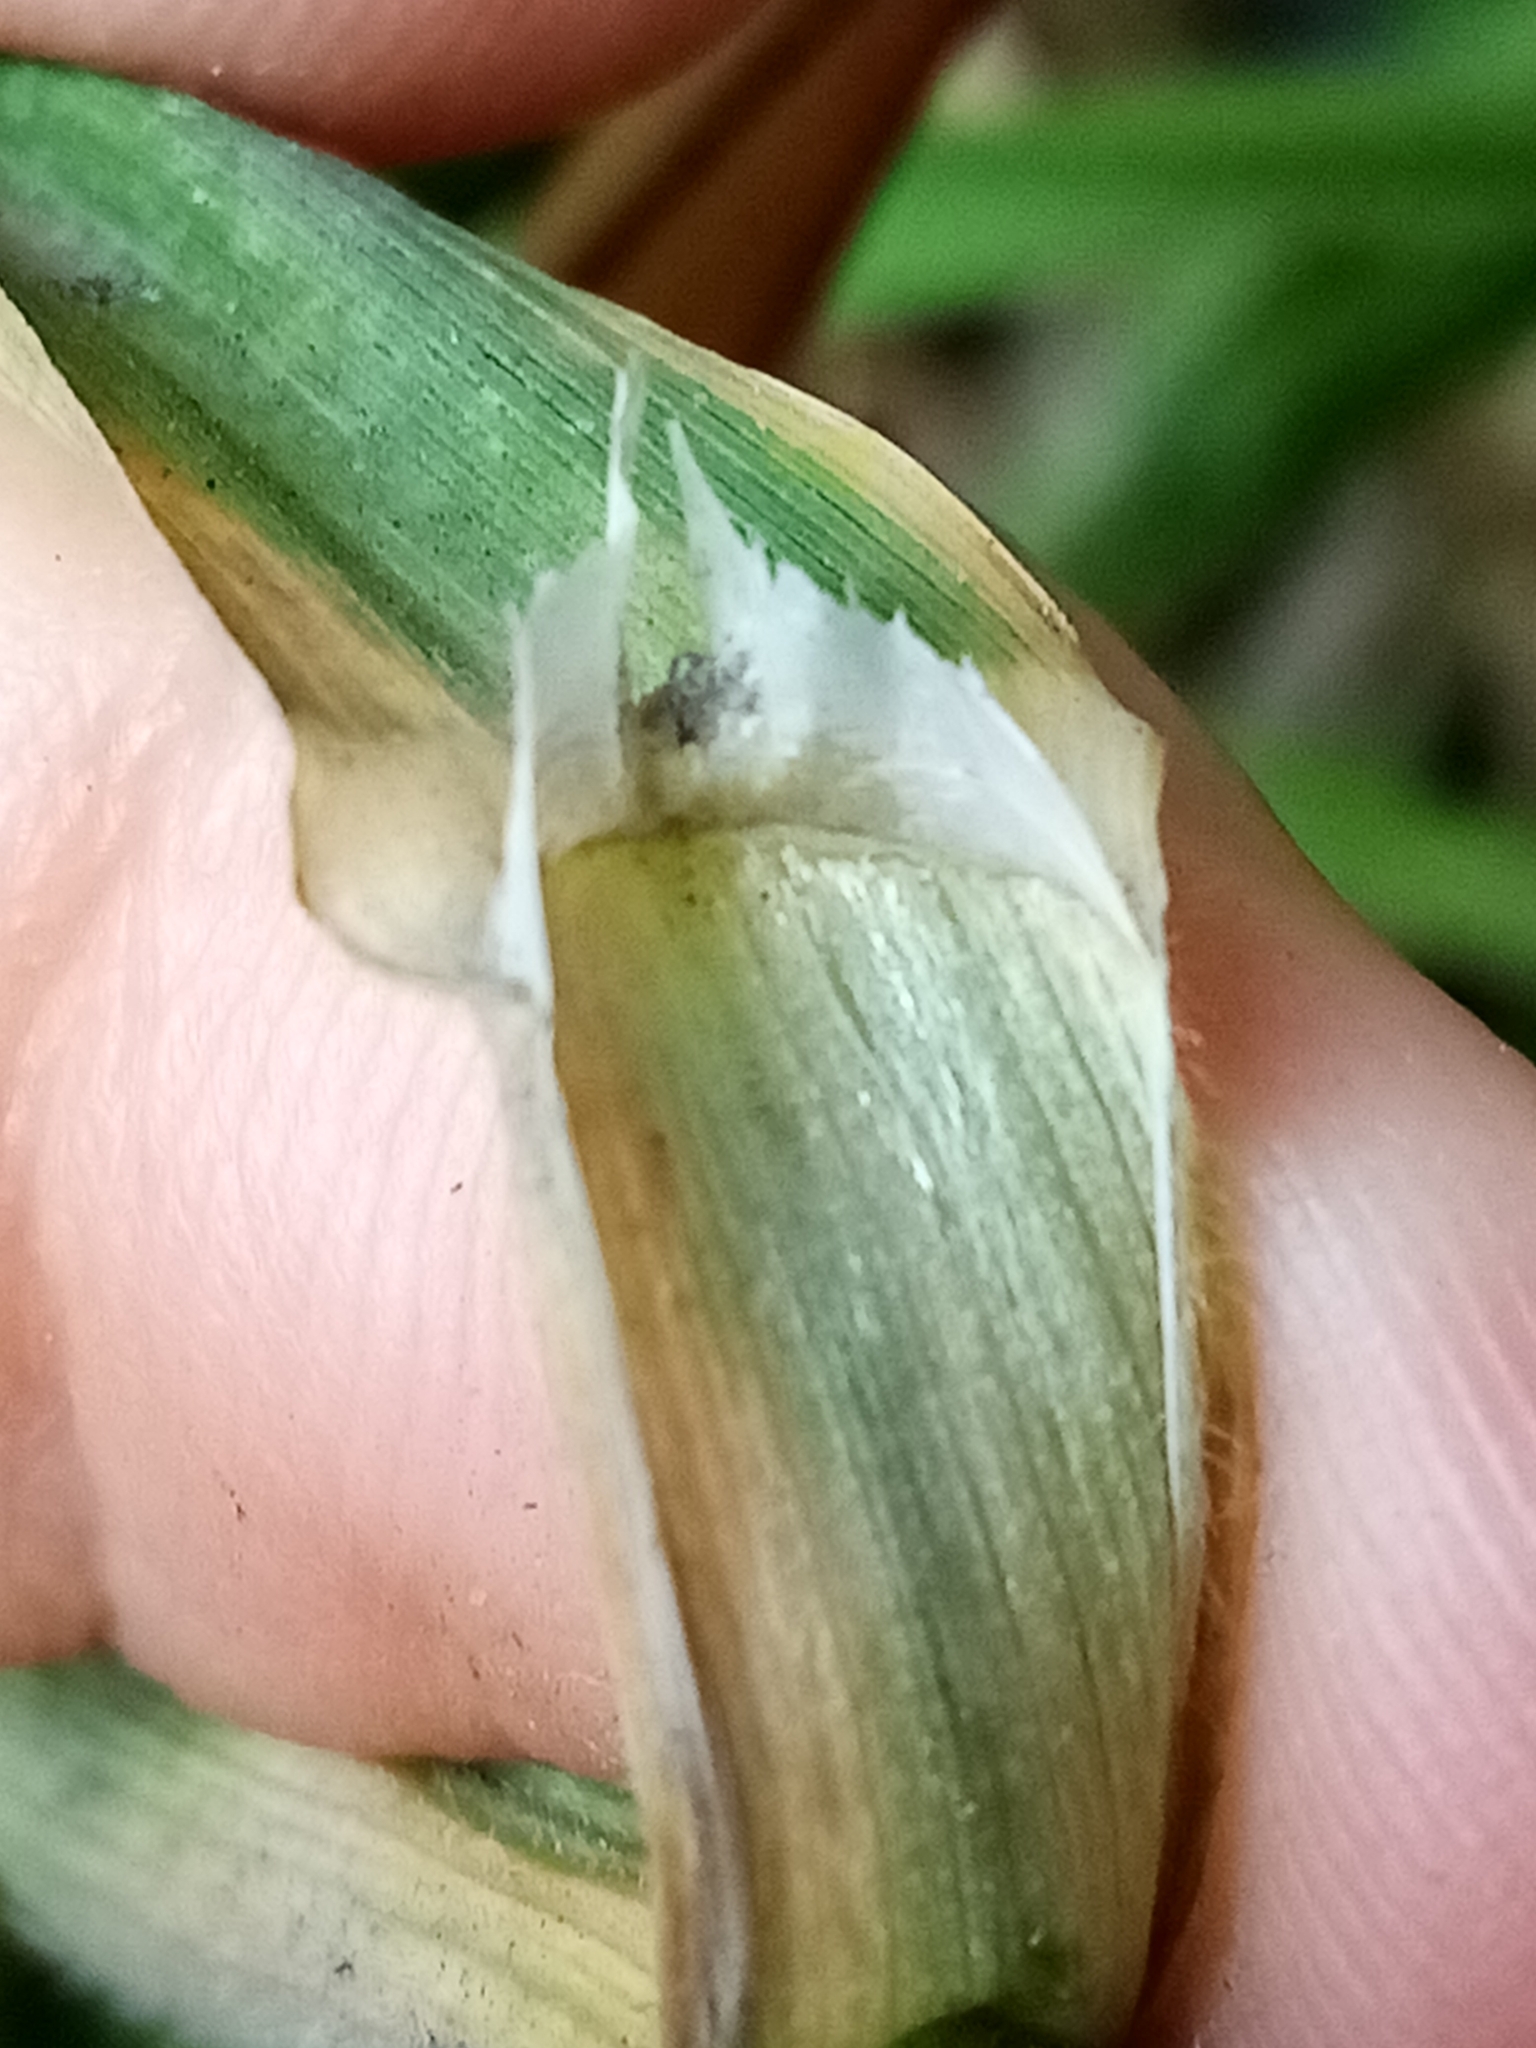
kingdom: Plantae
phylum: Tracheophyta
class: Liliopsida
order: Poales
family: Poaceae
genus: Bromus
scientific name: Bromus catharticus
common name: Rescuegrass
